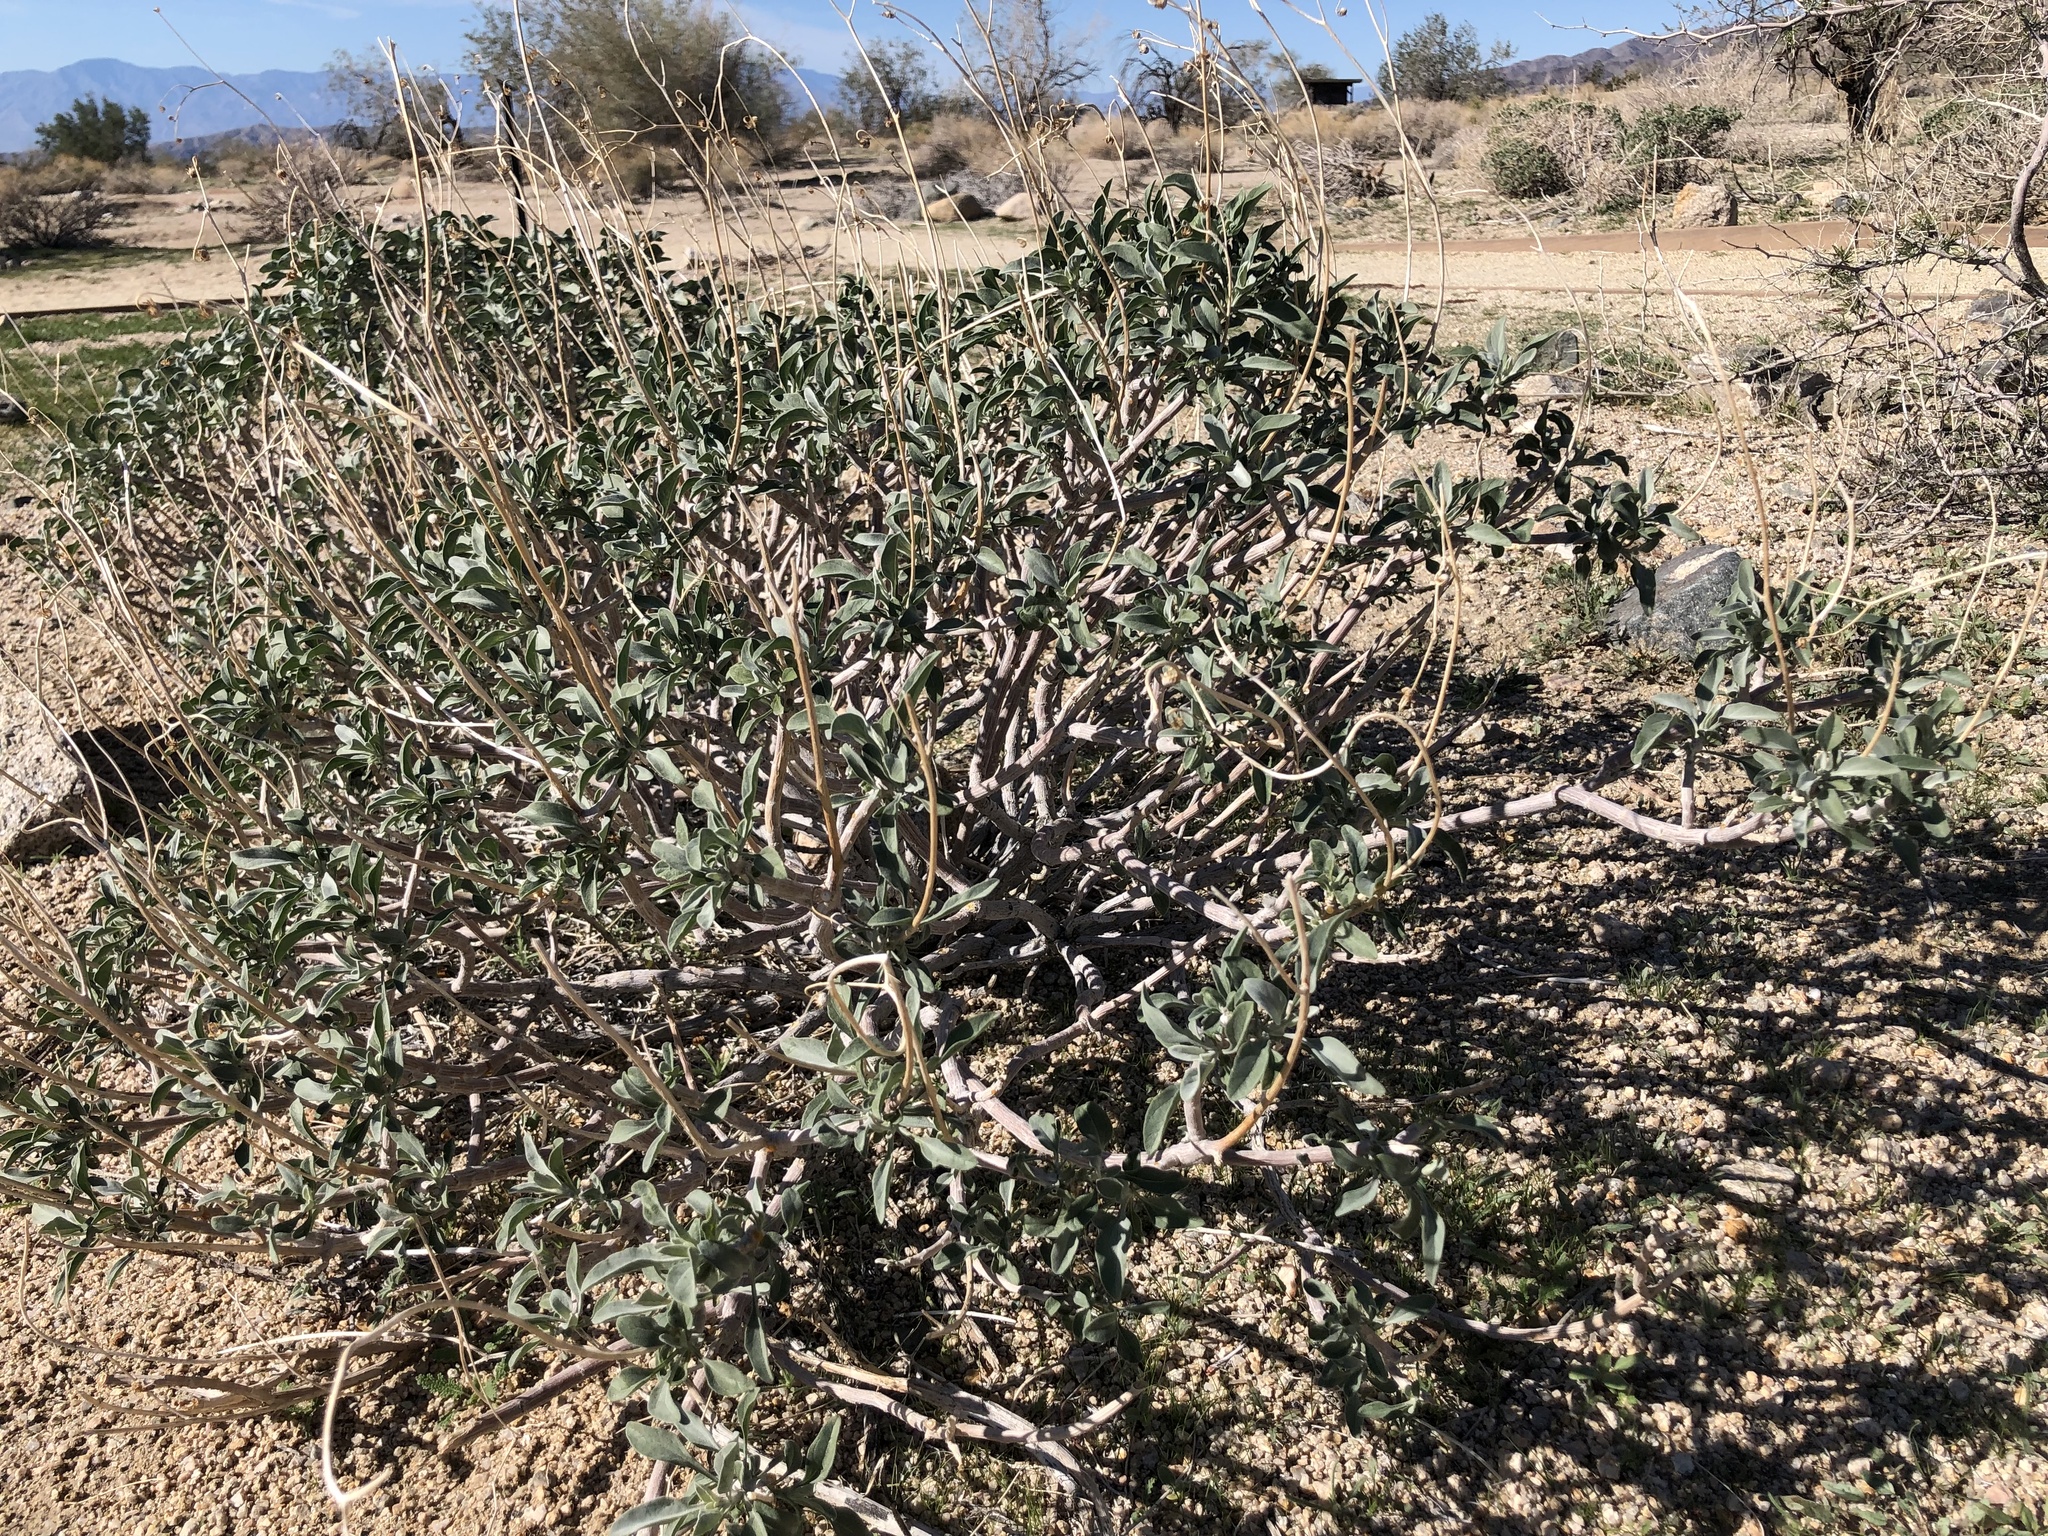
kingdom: Plantae
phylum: Tracheophyta
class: Magnoliopsida
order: Asterales
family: Asteraceae
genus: Encelia
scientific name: Encelia farinosa
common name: Brittlebush
